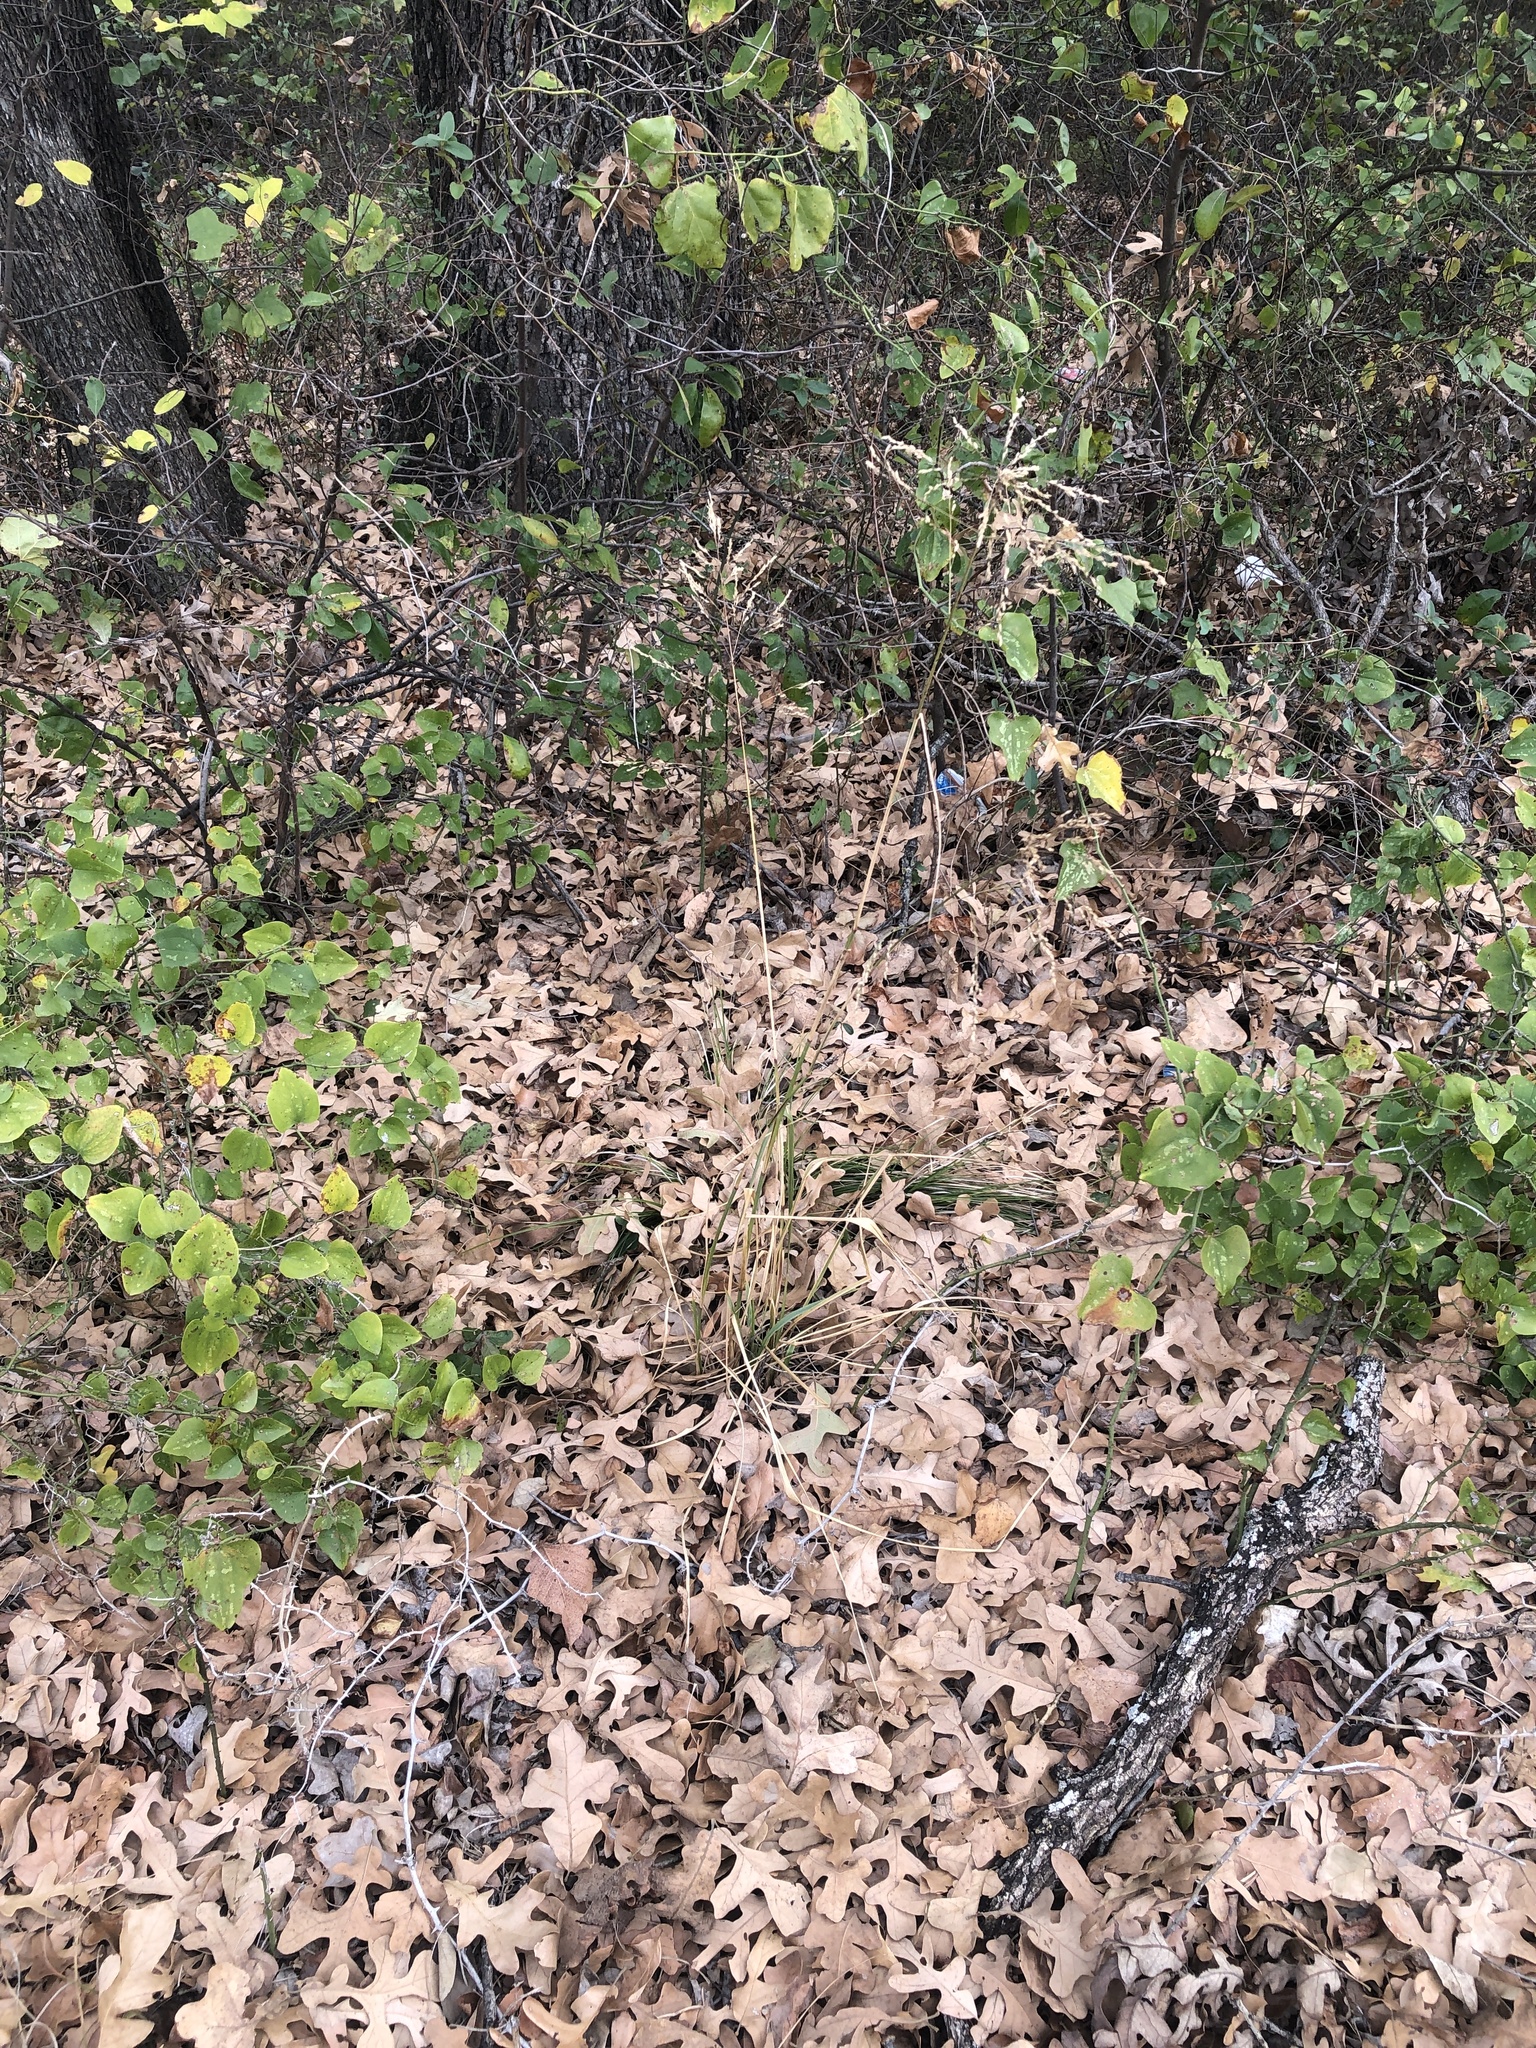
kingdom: Plantae
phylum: Tracheophyta
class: Liliopsida
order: Poales
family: Poaceae
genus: Tridens
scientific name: Tridens flavus
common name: Purpletop
